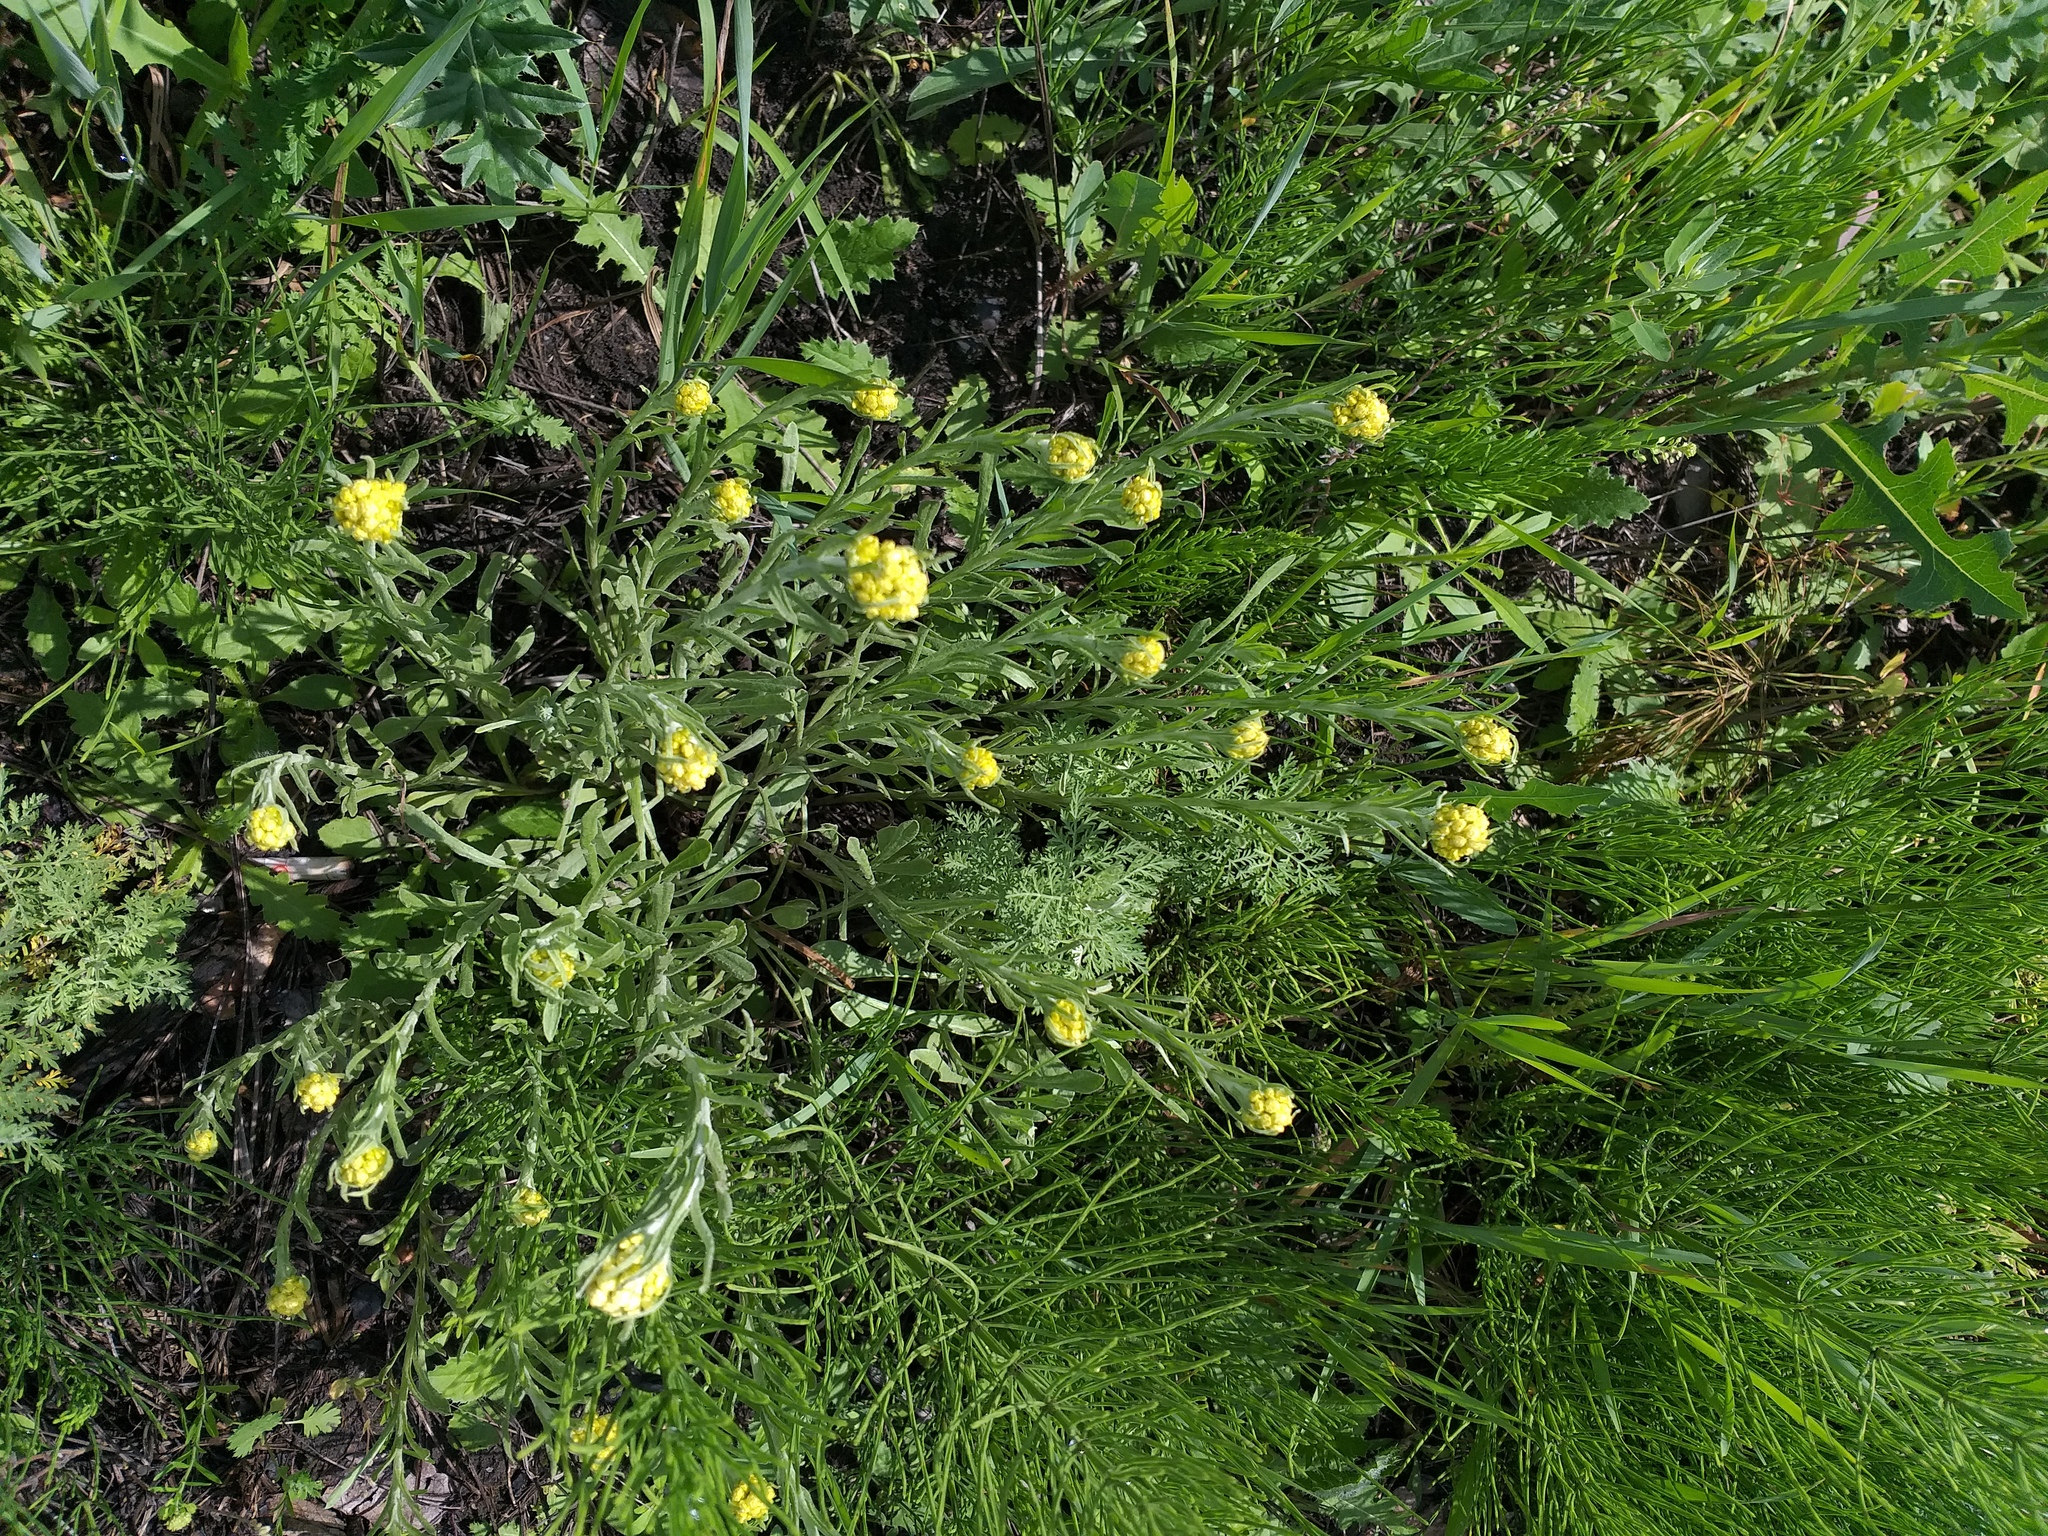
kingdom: Plantae
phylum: Tracheophyta
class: Magnoliopsida
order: Asterales
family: Asteraceae
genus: Helichrysum
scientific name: Helichrysum arenarium
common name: Strawflower
